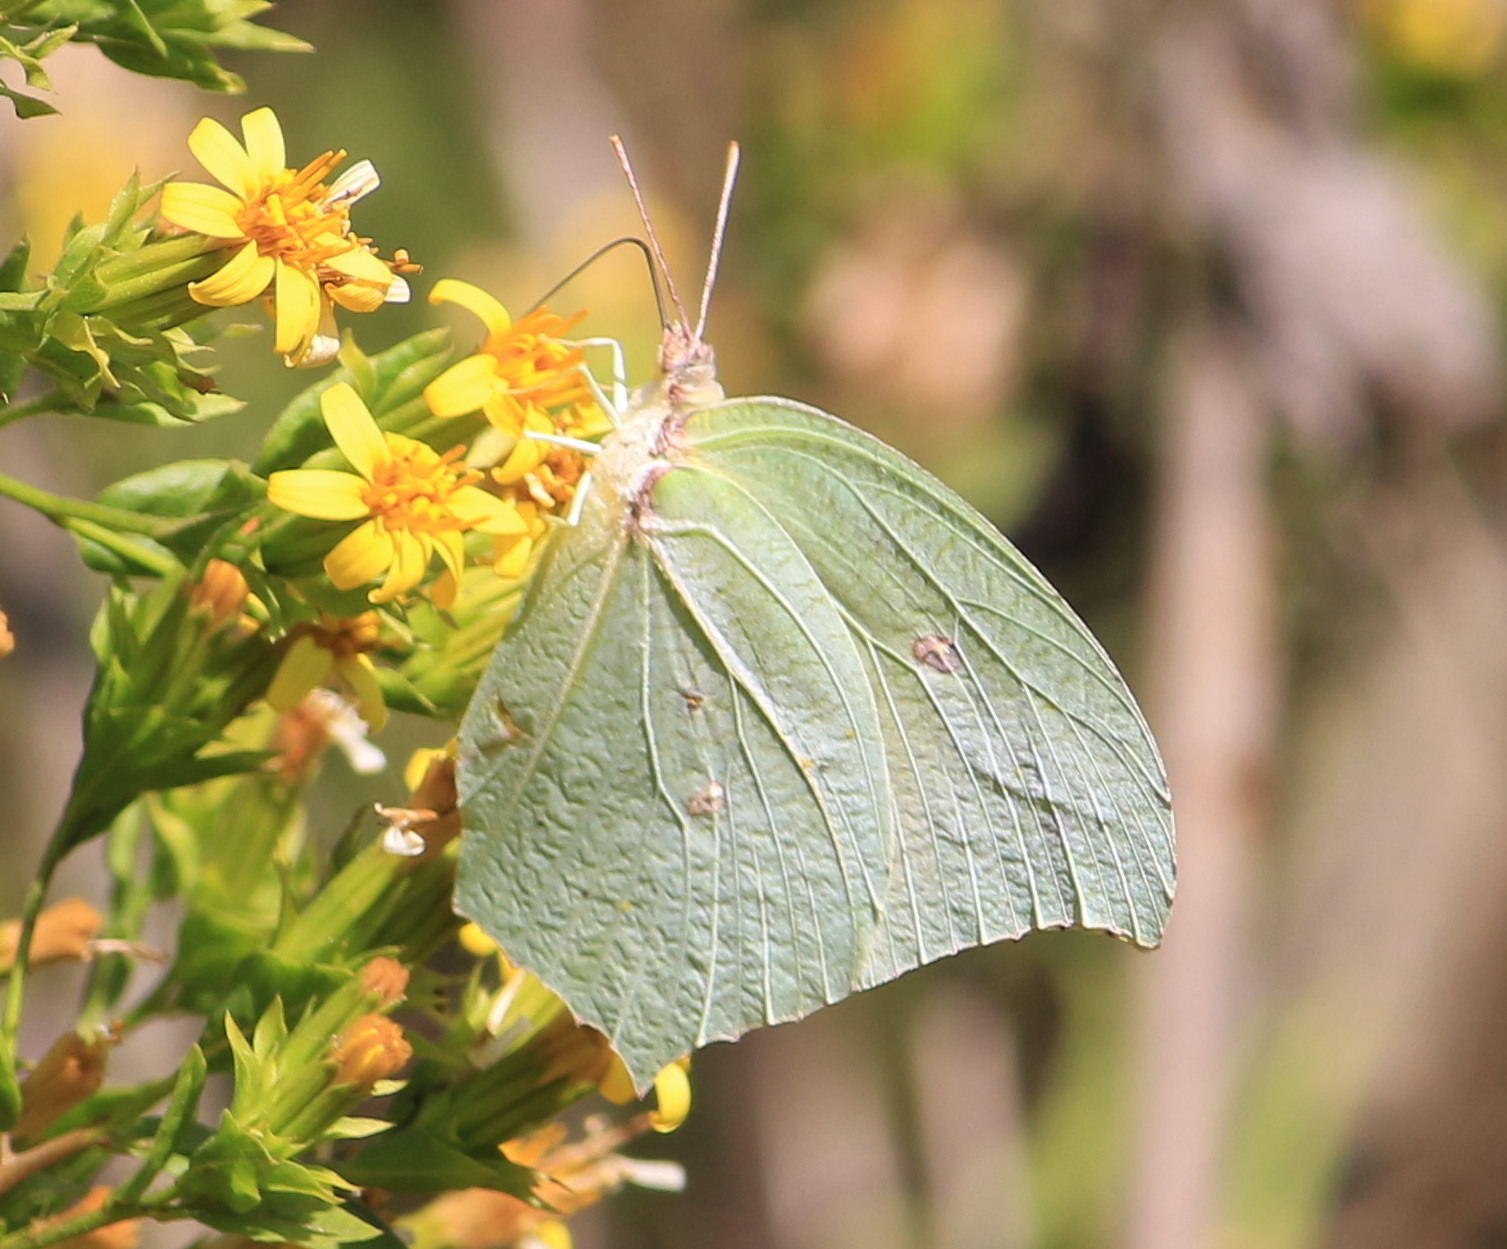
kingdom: Animalia
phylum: Arthropoda
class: Insecta
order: Lepidoptera
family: Pieridae
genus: Anteos
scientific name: Anteos maerula
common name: Angled sulphur
